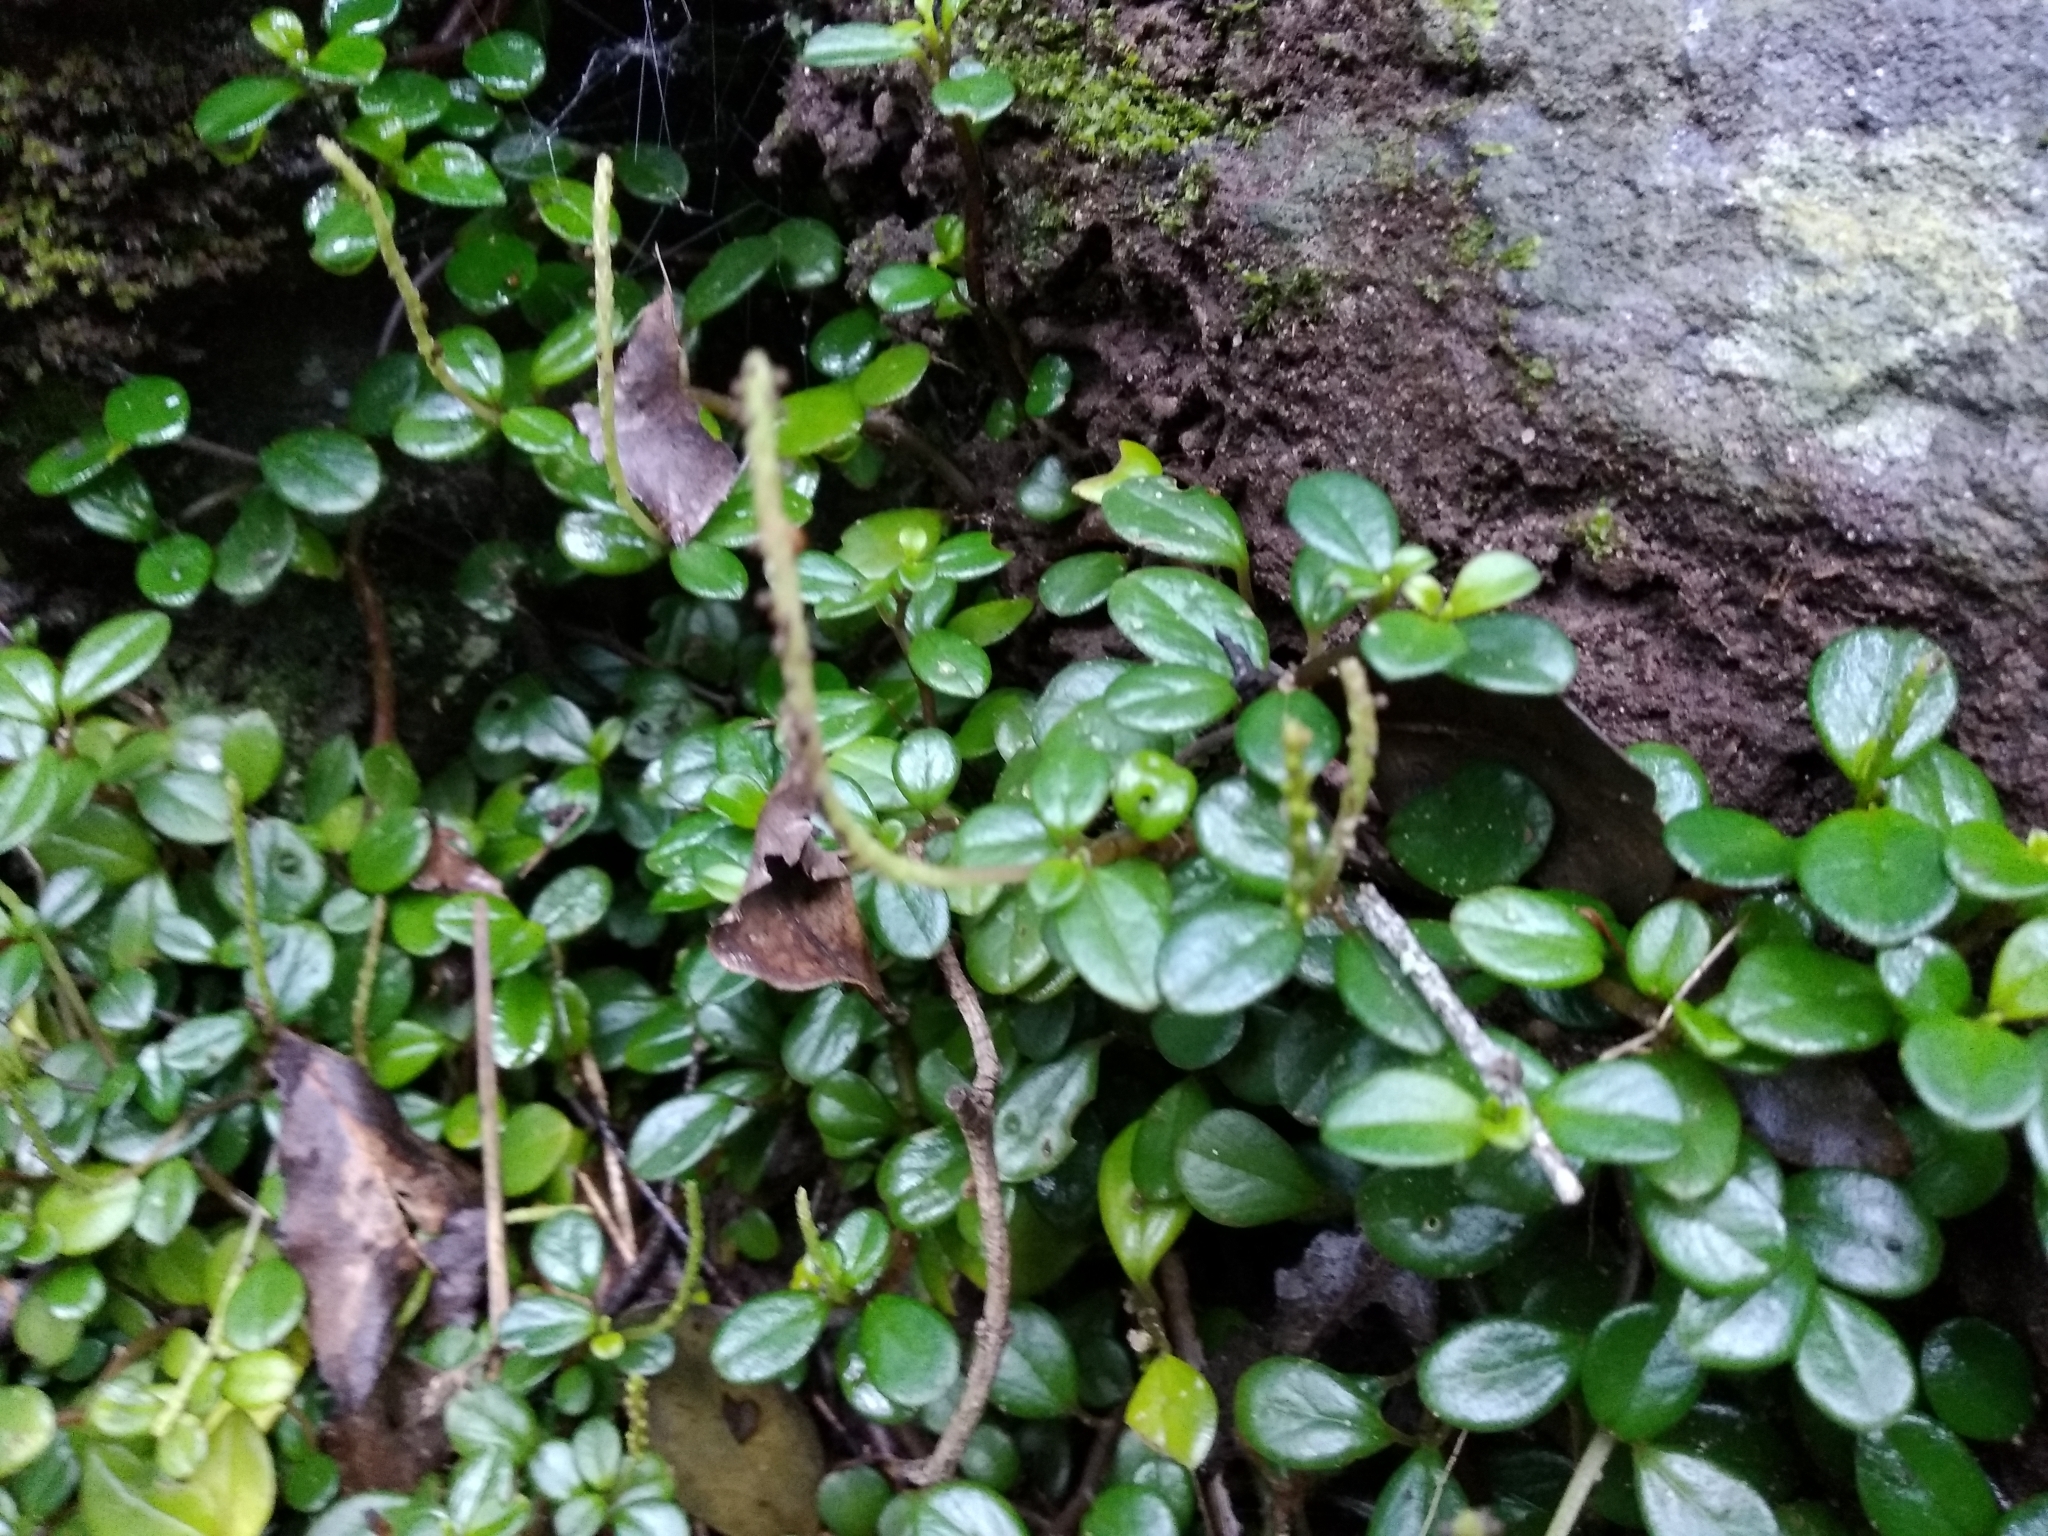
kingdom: Plantae
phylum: Tracheophyta
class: Magnoliopsida
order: Piperales
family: Piperaceae
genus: Peperomia
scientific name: Peperomia retusa
